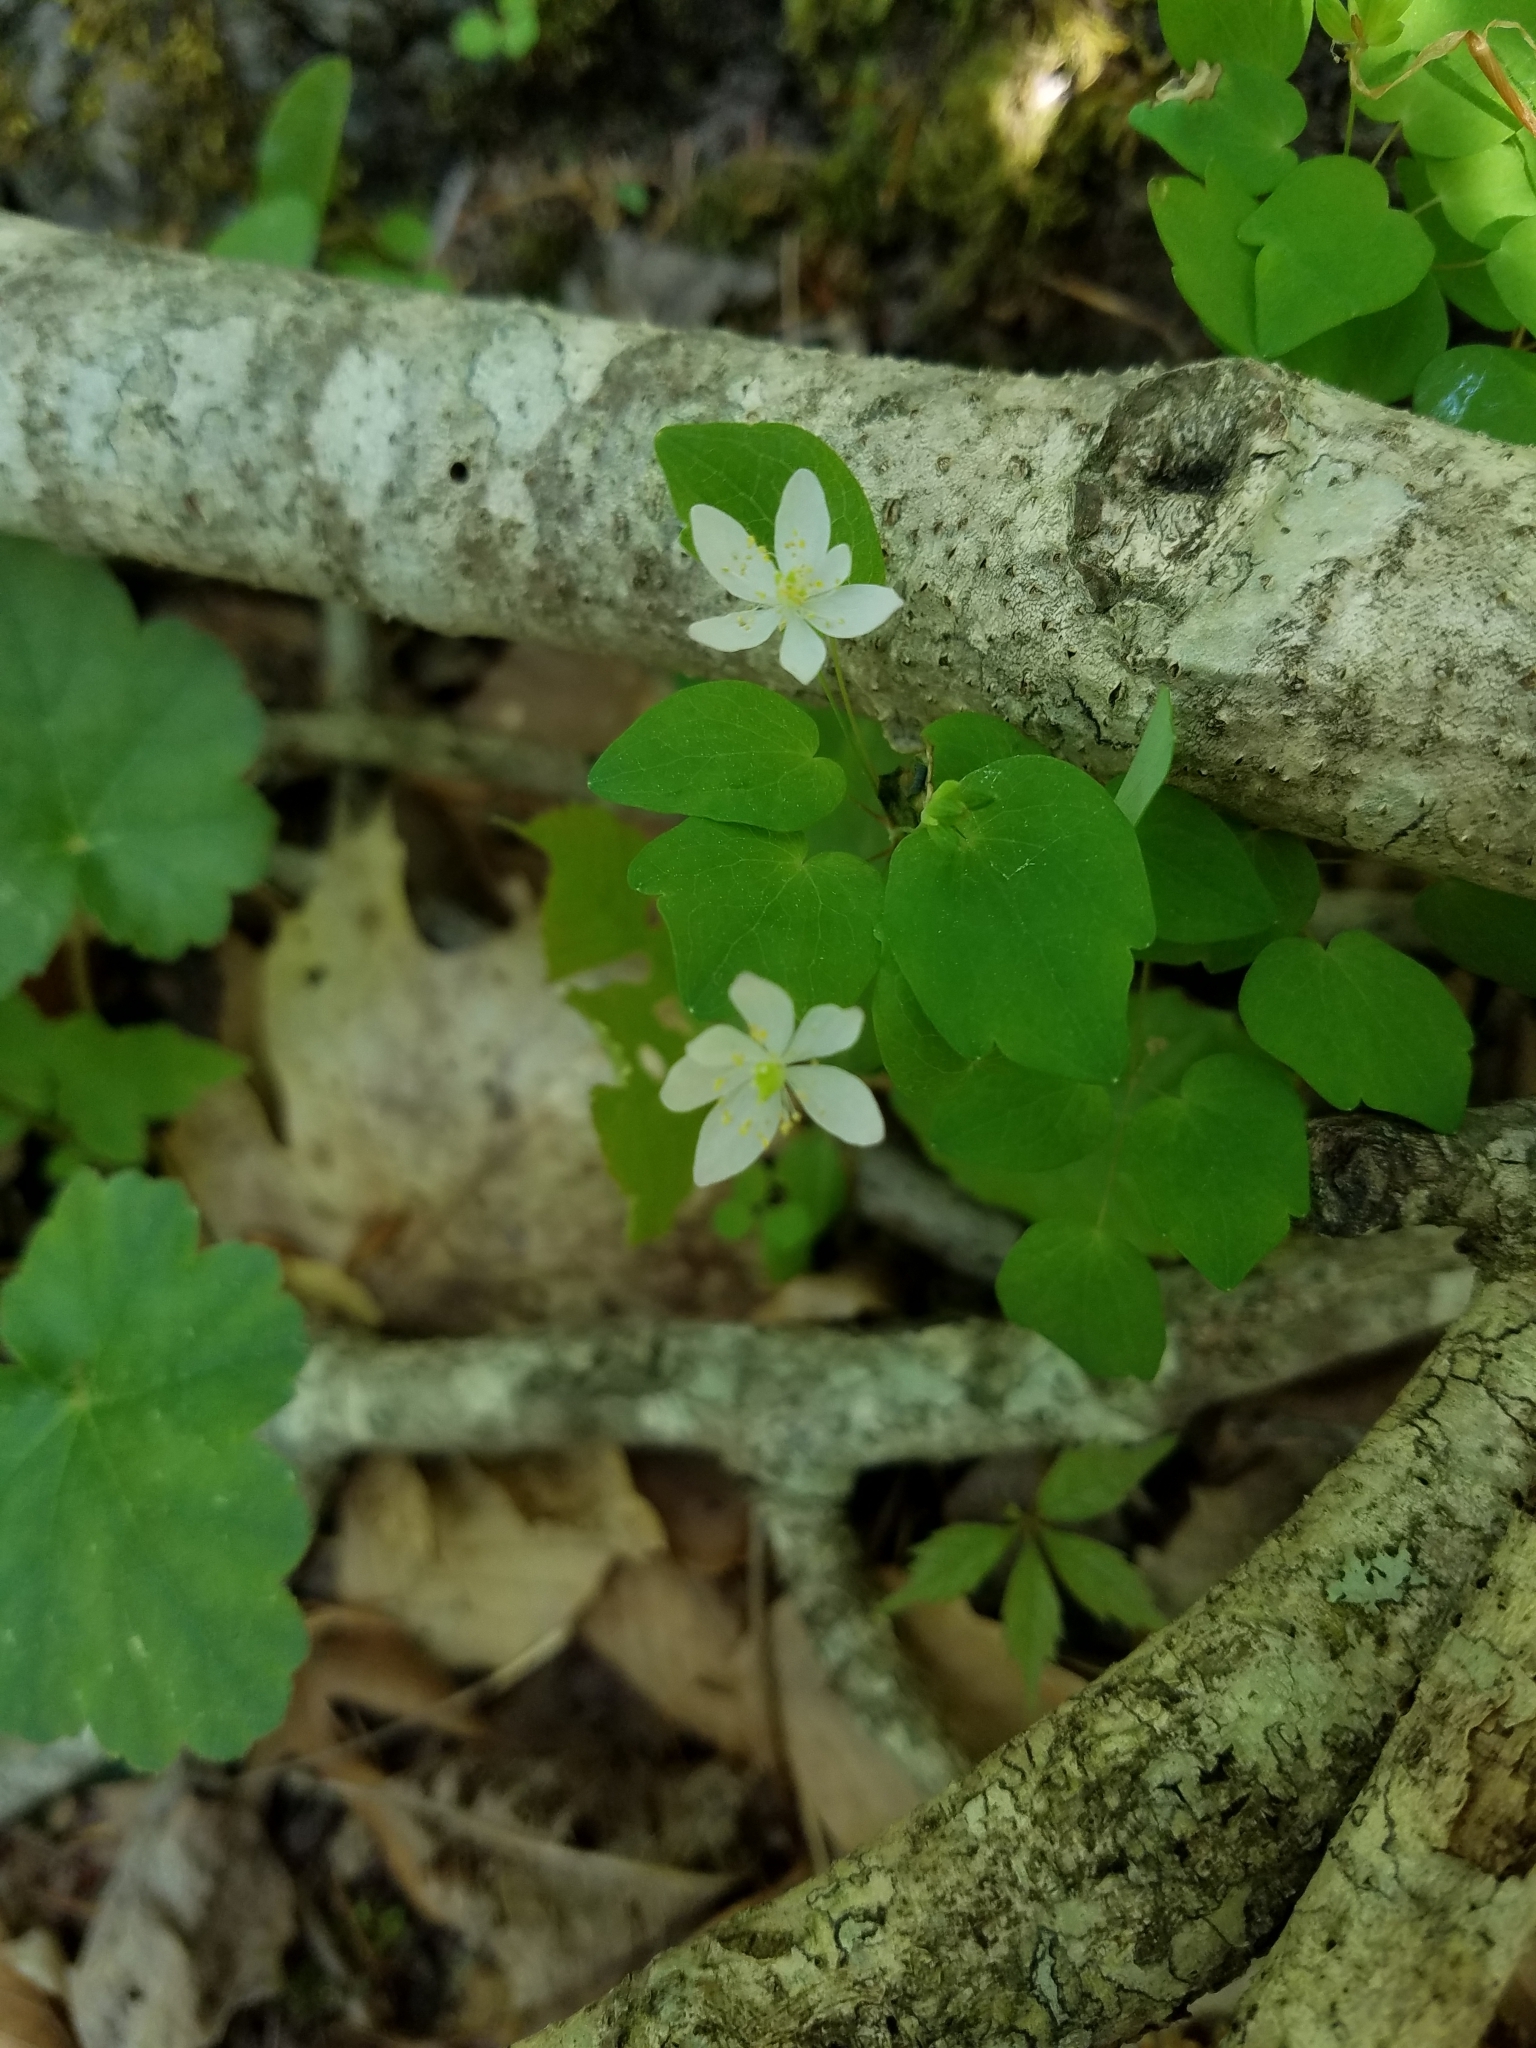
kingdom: Plantae
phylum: Tracheophyta
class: Magnoliopsida
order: Ranunculales
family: Ranunculaceae
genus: Thalictrum
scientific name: Thalictrum thalictroides
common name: Rue-anemone
